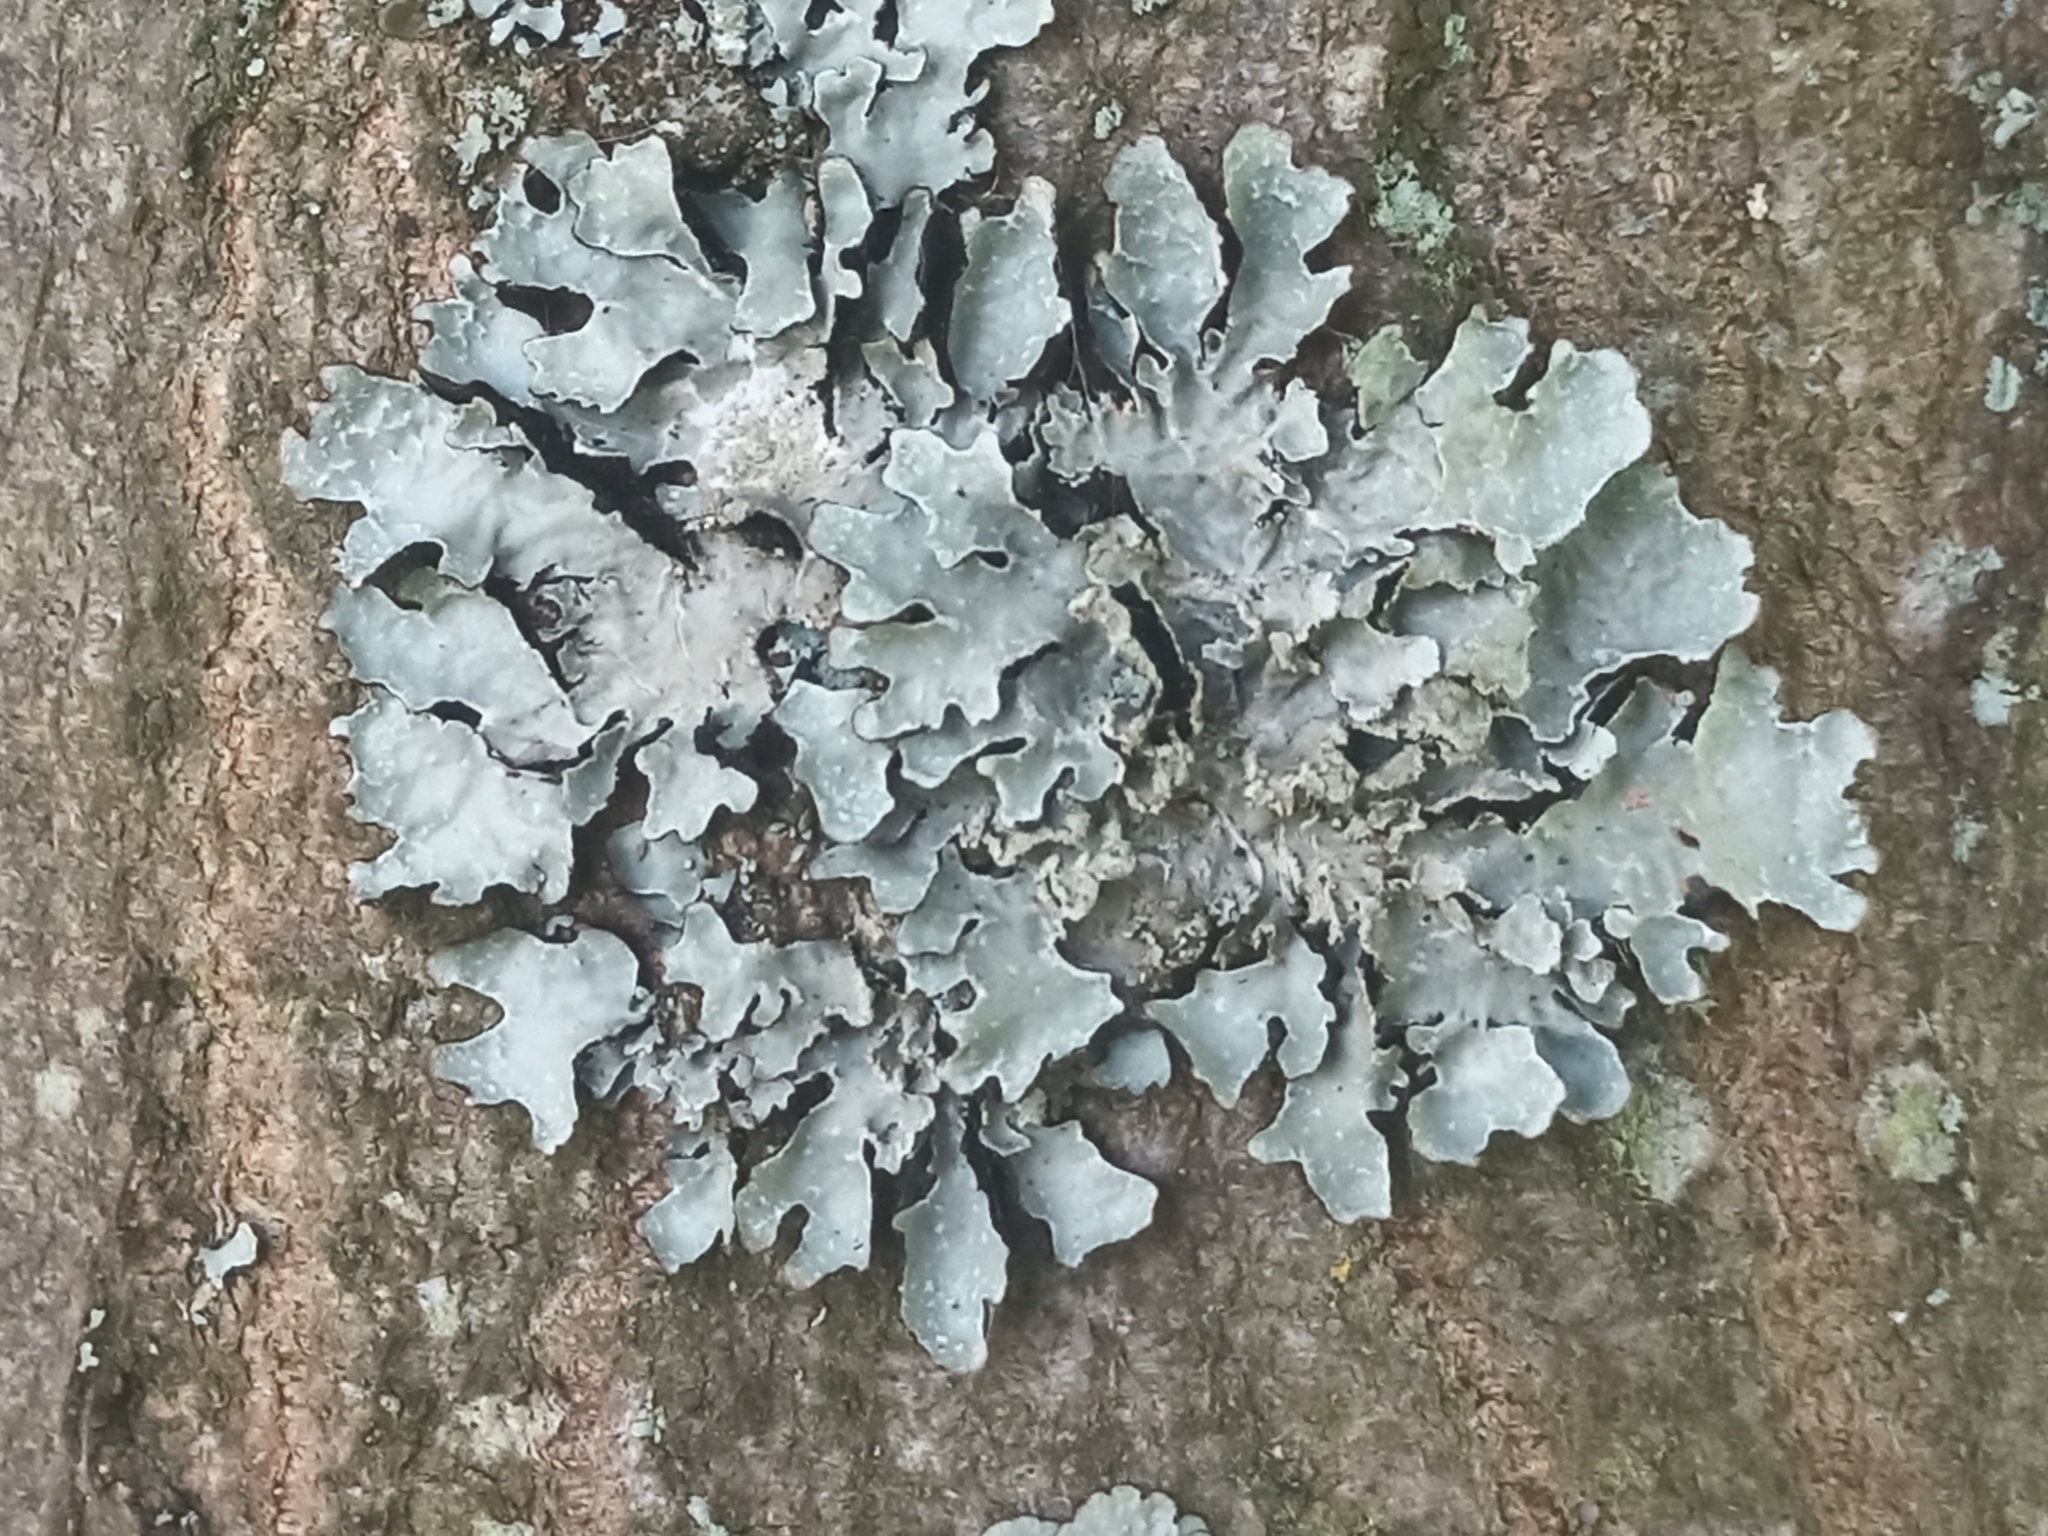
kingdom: Fungi
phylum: Ascomycota
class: Lecanoromycetes
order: Lecanorales
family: Parmeliaceae
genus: Parmelia
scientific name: Parmelia sulcata
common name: Netted shield lichen
